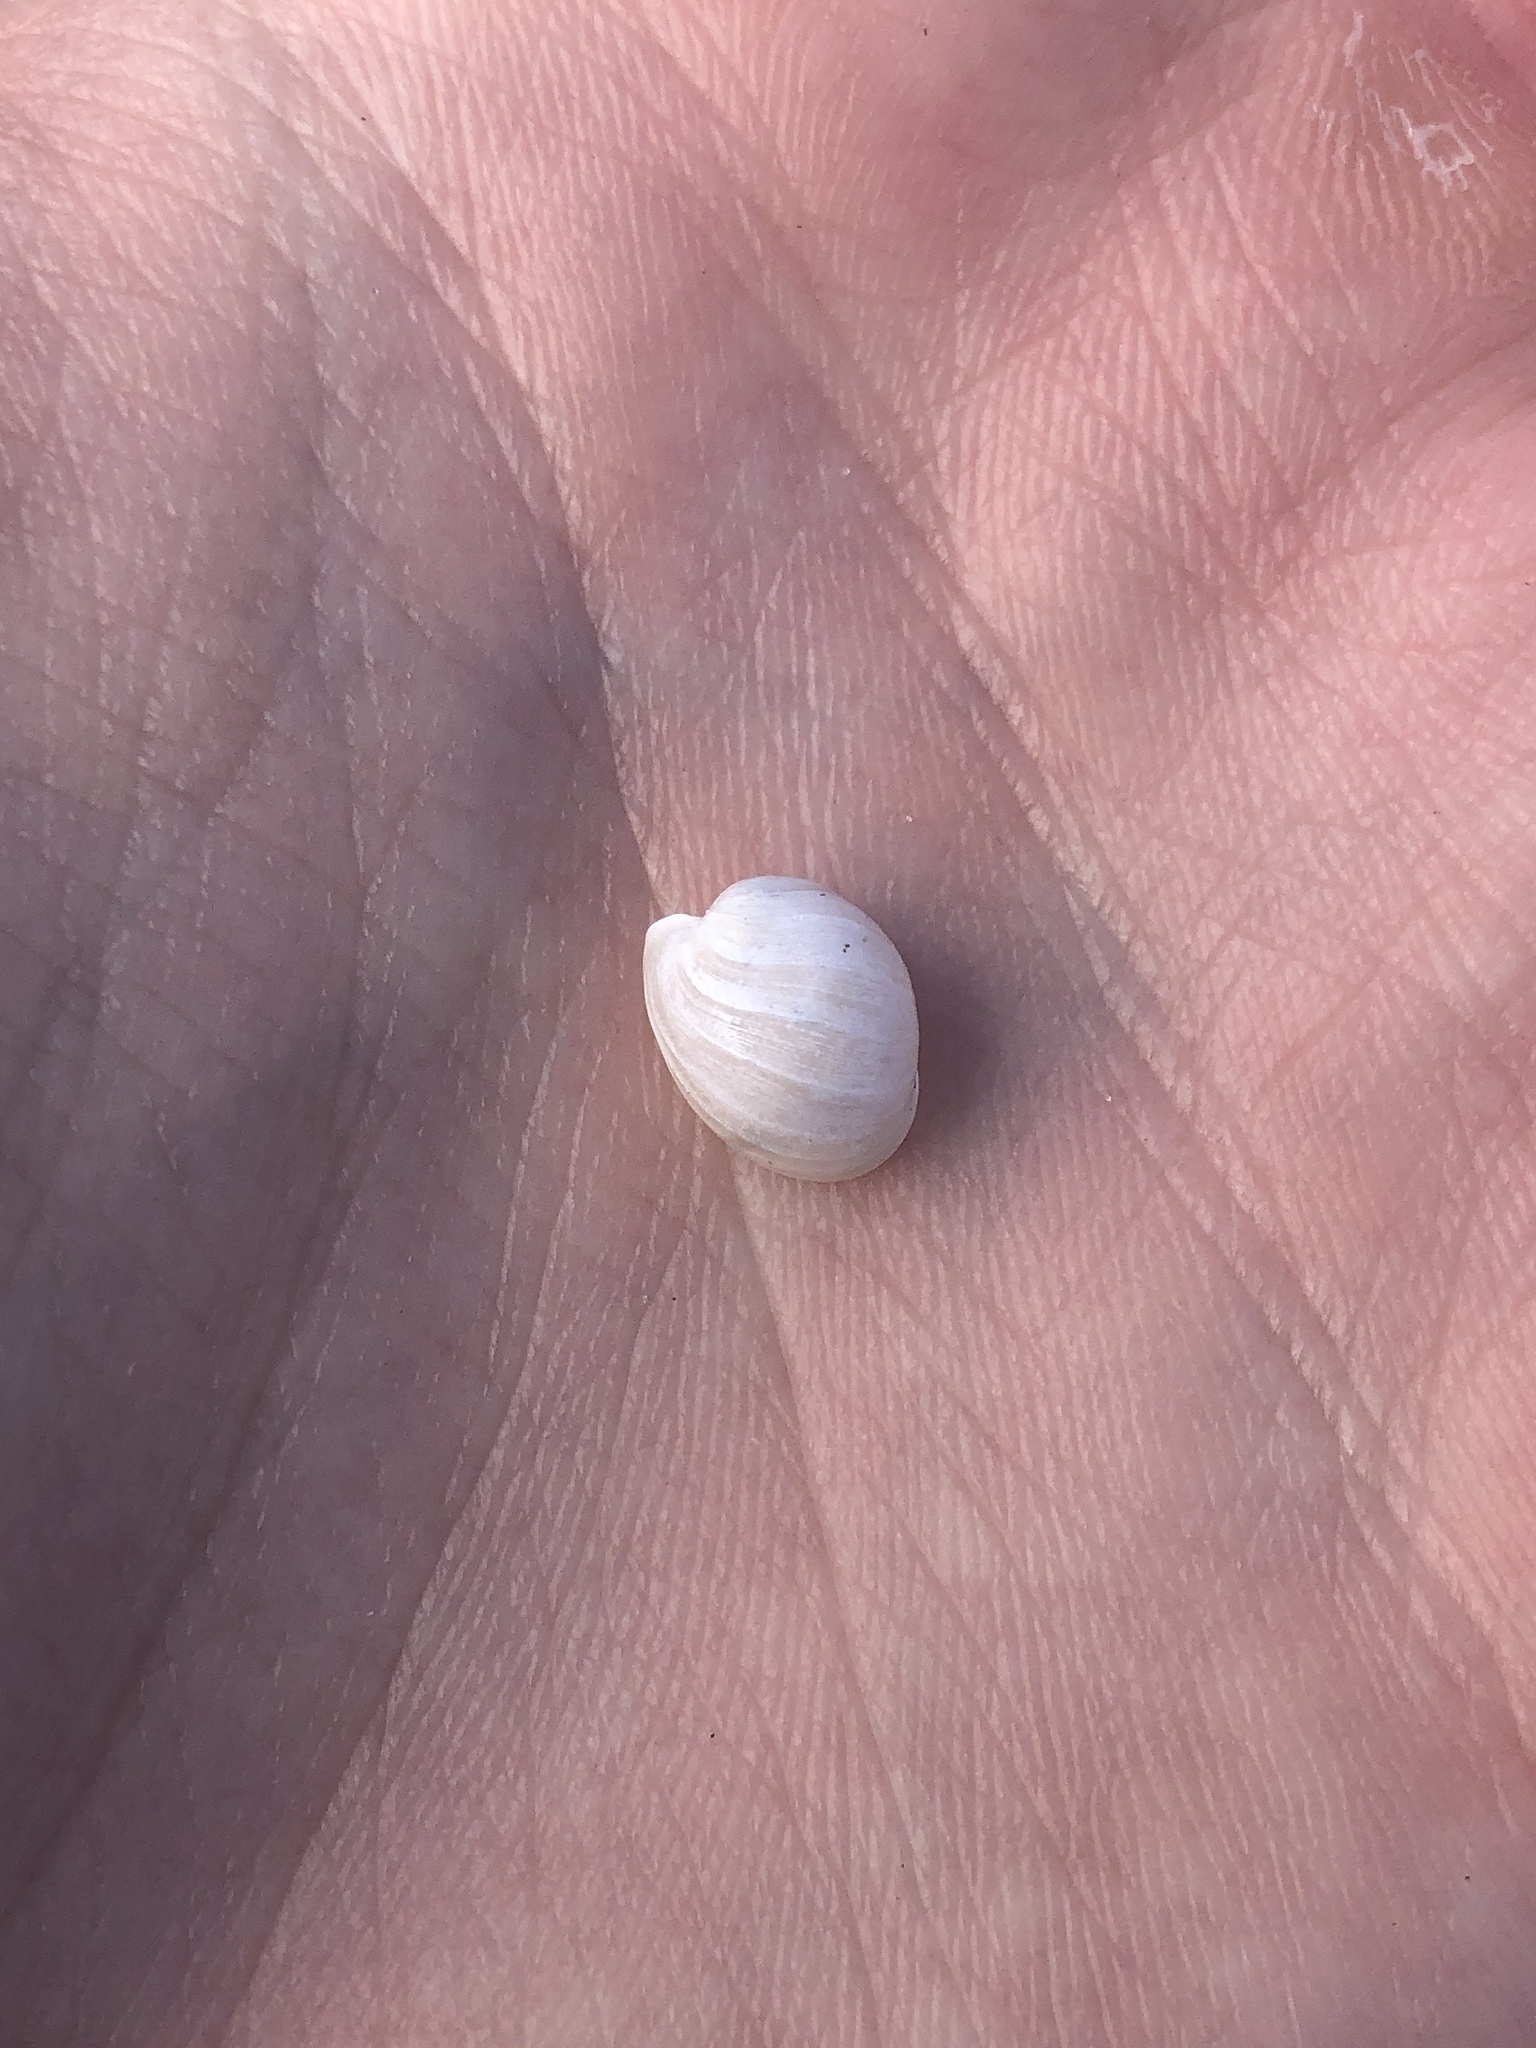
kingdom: Animalia
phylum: Mollusca
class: Gastropoda
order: Cephalaspidea
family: Haminoeidae
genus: Haminoea
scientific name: Haminoea antillarum
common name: Antilles glassy-bubble
